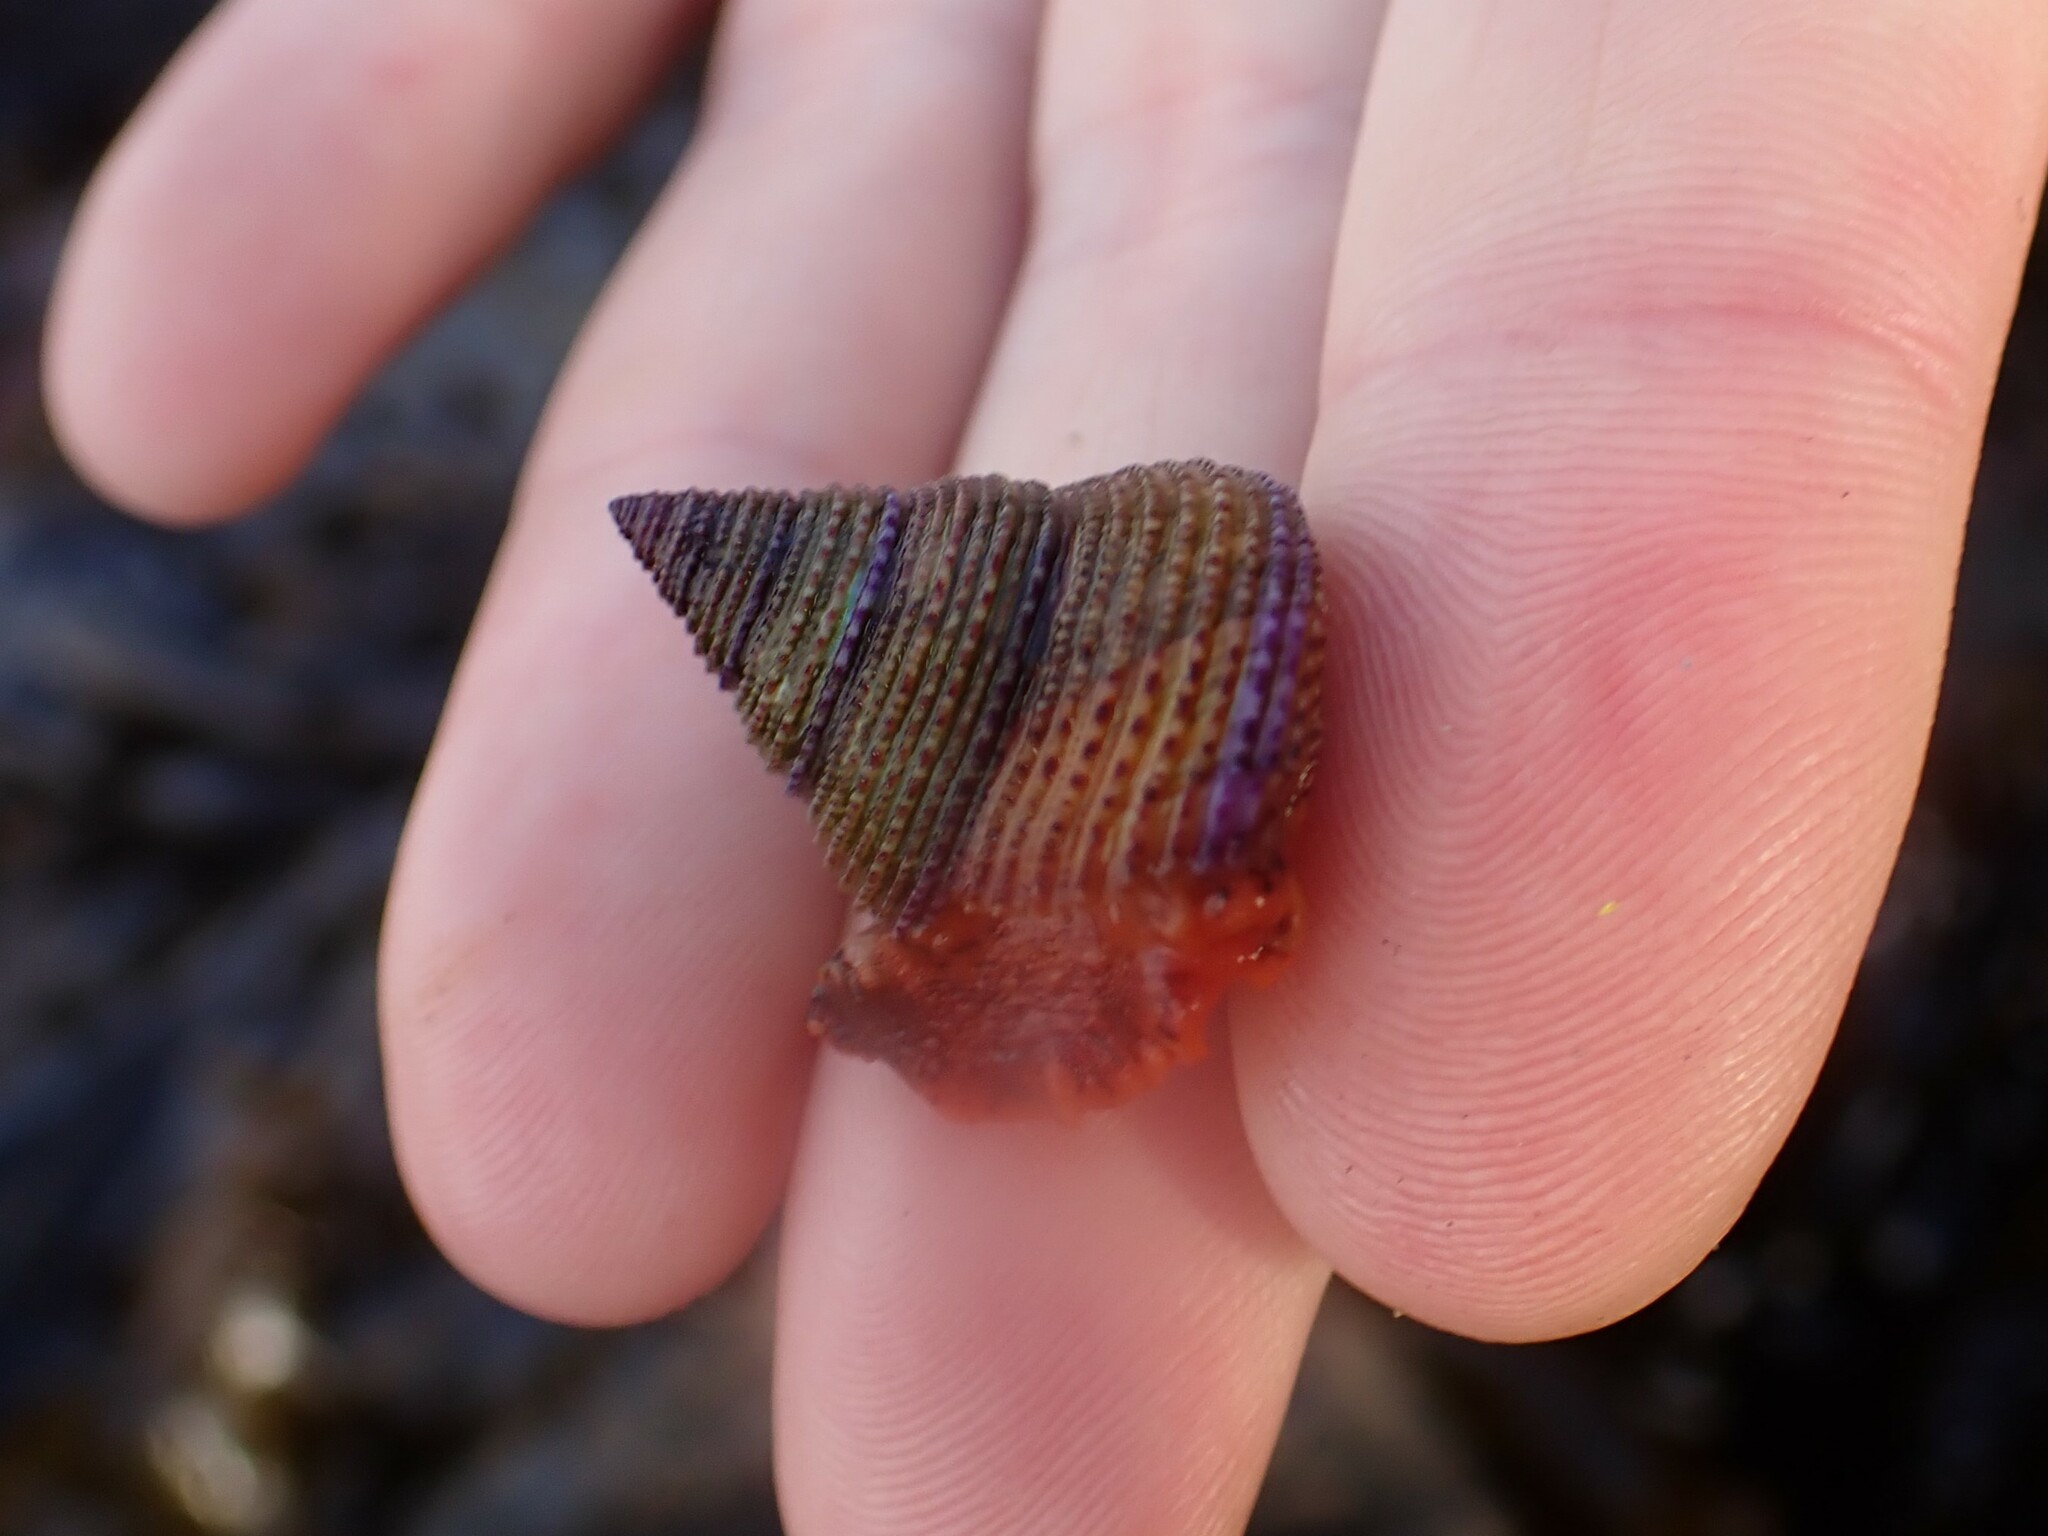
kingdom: Animalia
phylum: Mollusca
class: Gastropoda
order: Trochida
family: Calliostomatidae
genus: Calliostoma
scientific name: Calliostoma annulatum
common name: Blue-ring topsnail
